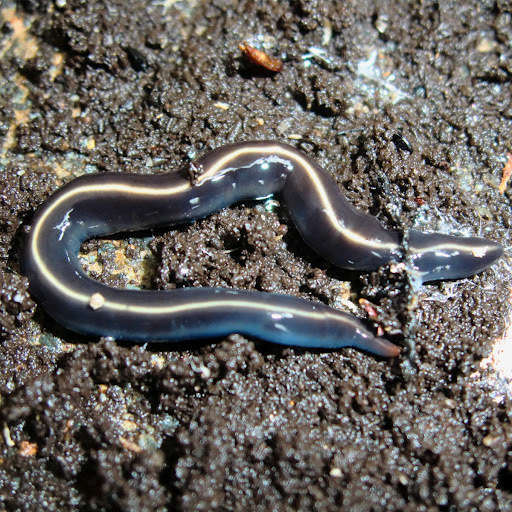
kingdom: Animalia
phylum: Platyhelminthes
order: Tricladida
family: Geoplanidae
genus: Caenoplana
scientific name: Caenoplana coerulea
